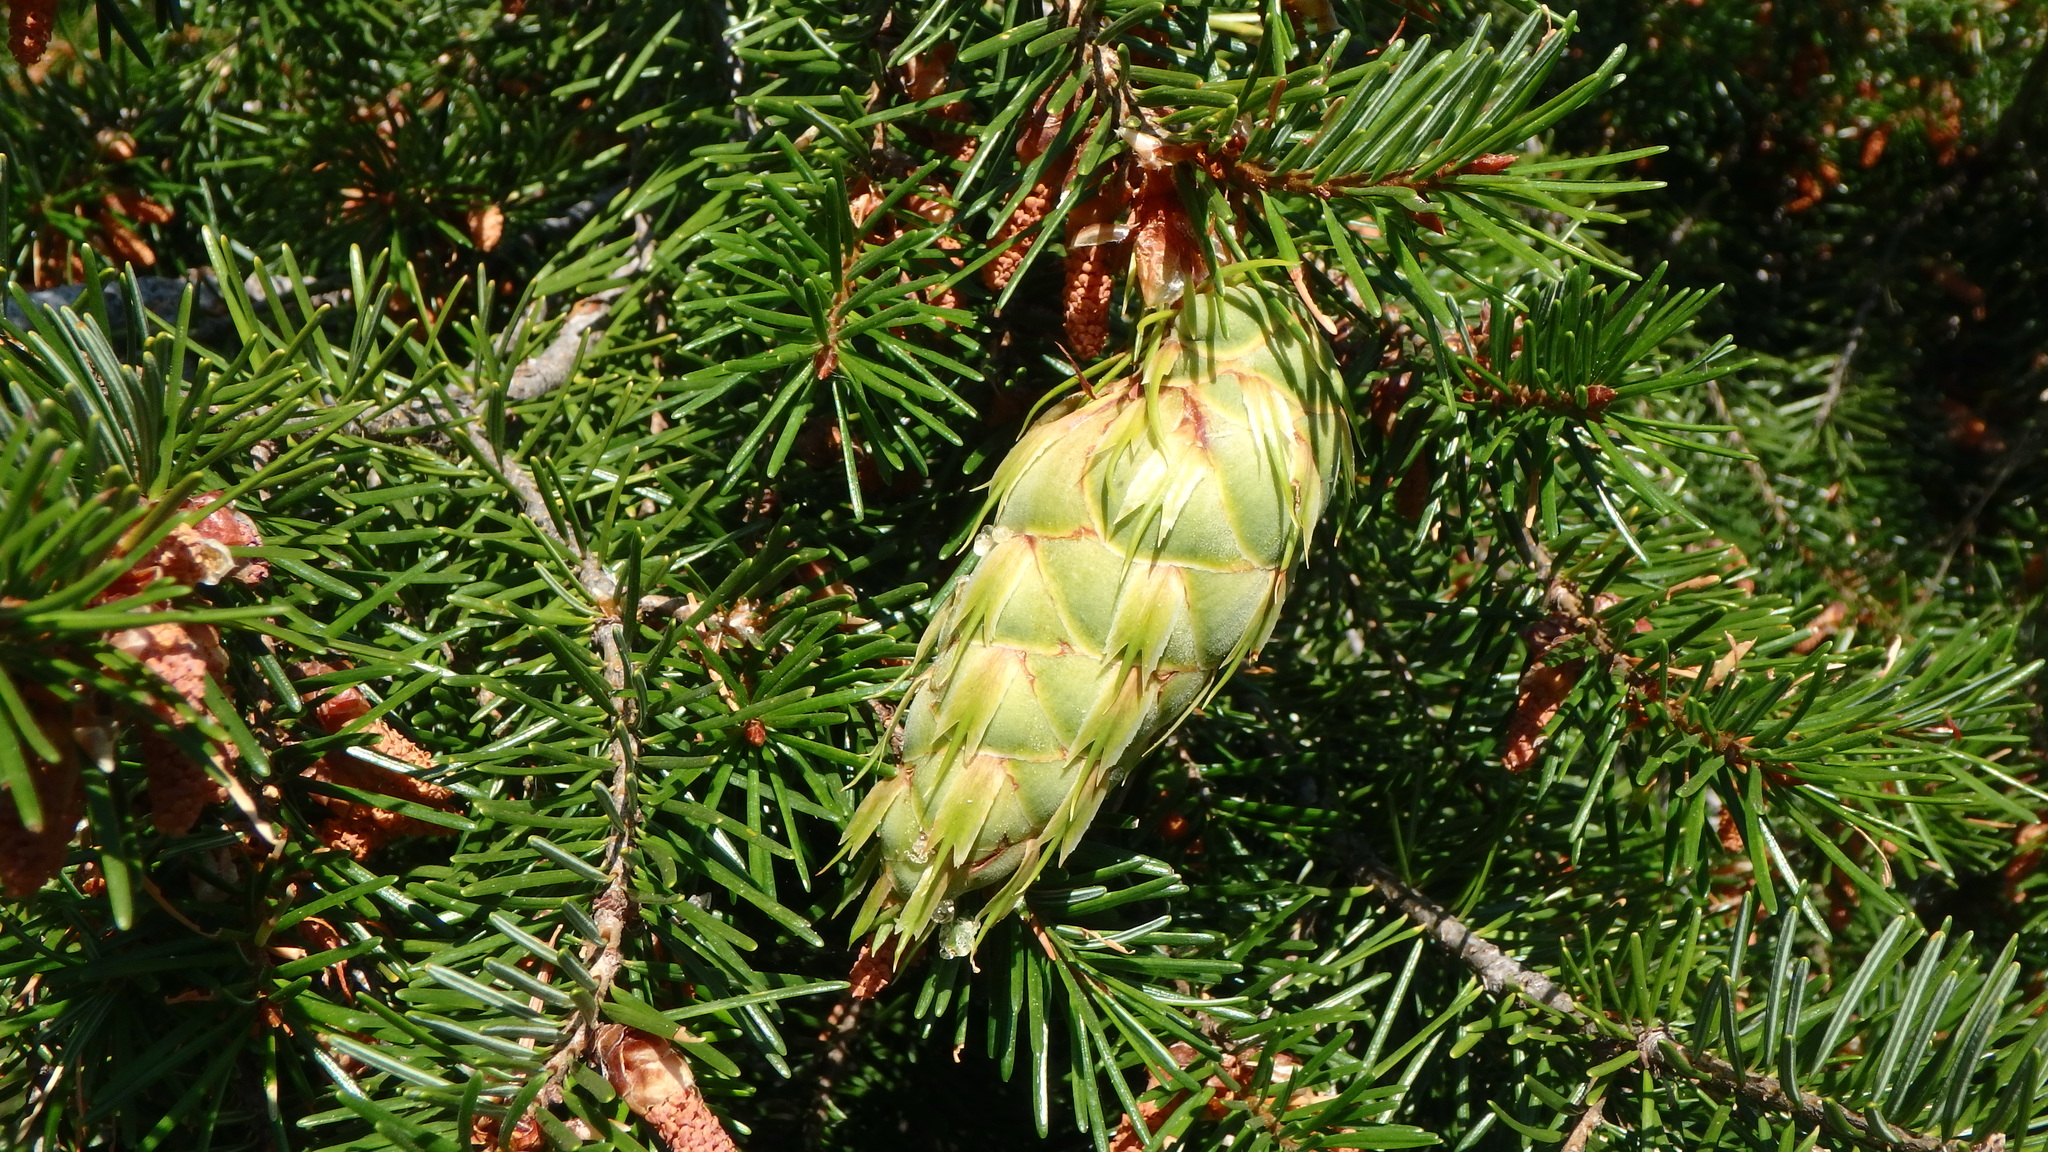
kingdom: Plantae
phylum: Tracheophyta
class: Pinopsida
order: Pinales
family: Pinaceae
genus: Pseudotsuga
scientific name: Pseudotsuga menziesii
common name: Douglas fir
